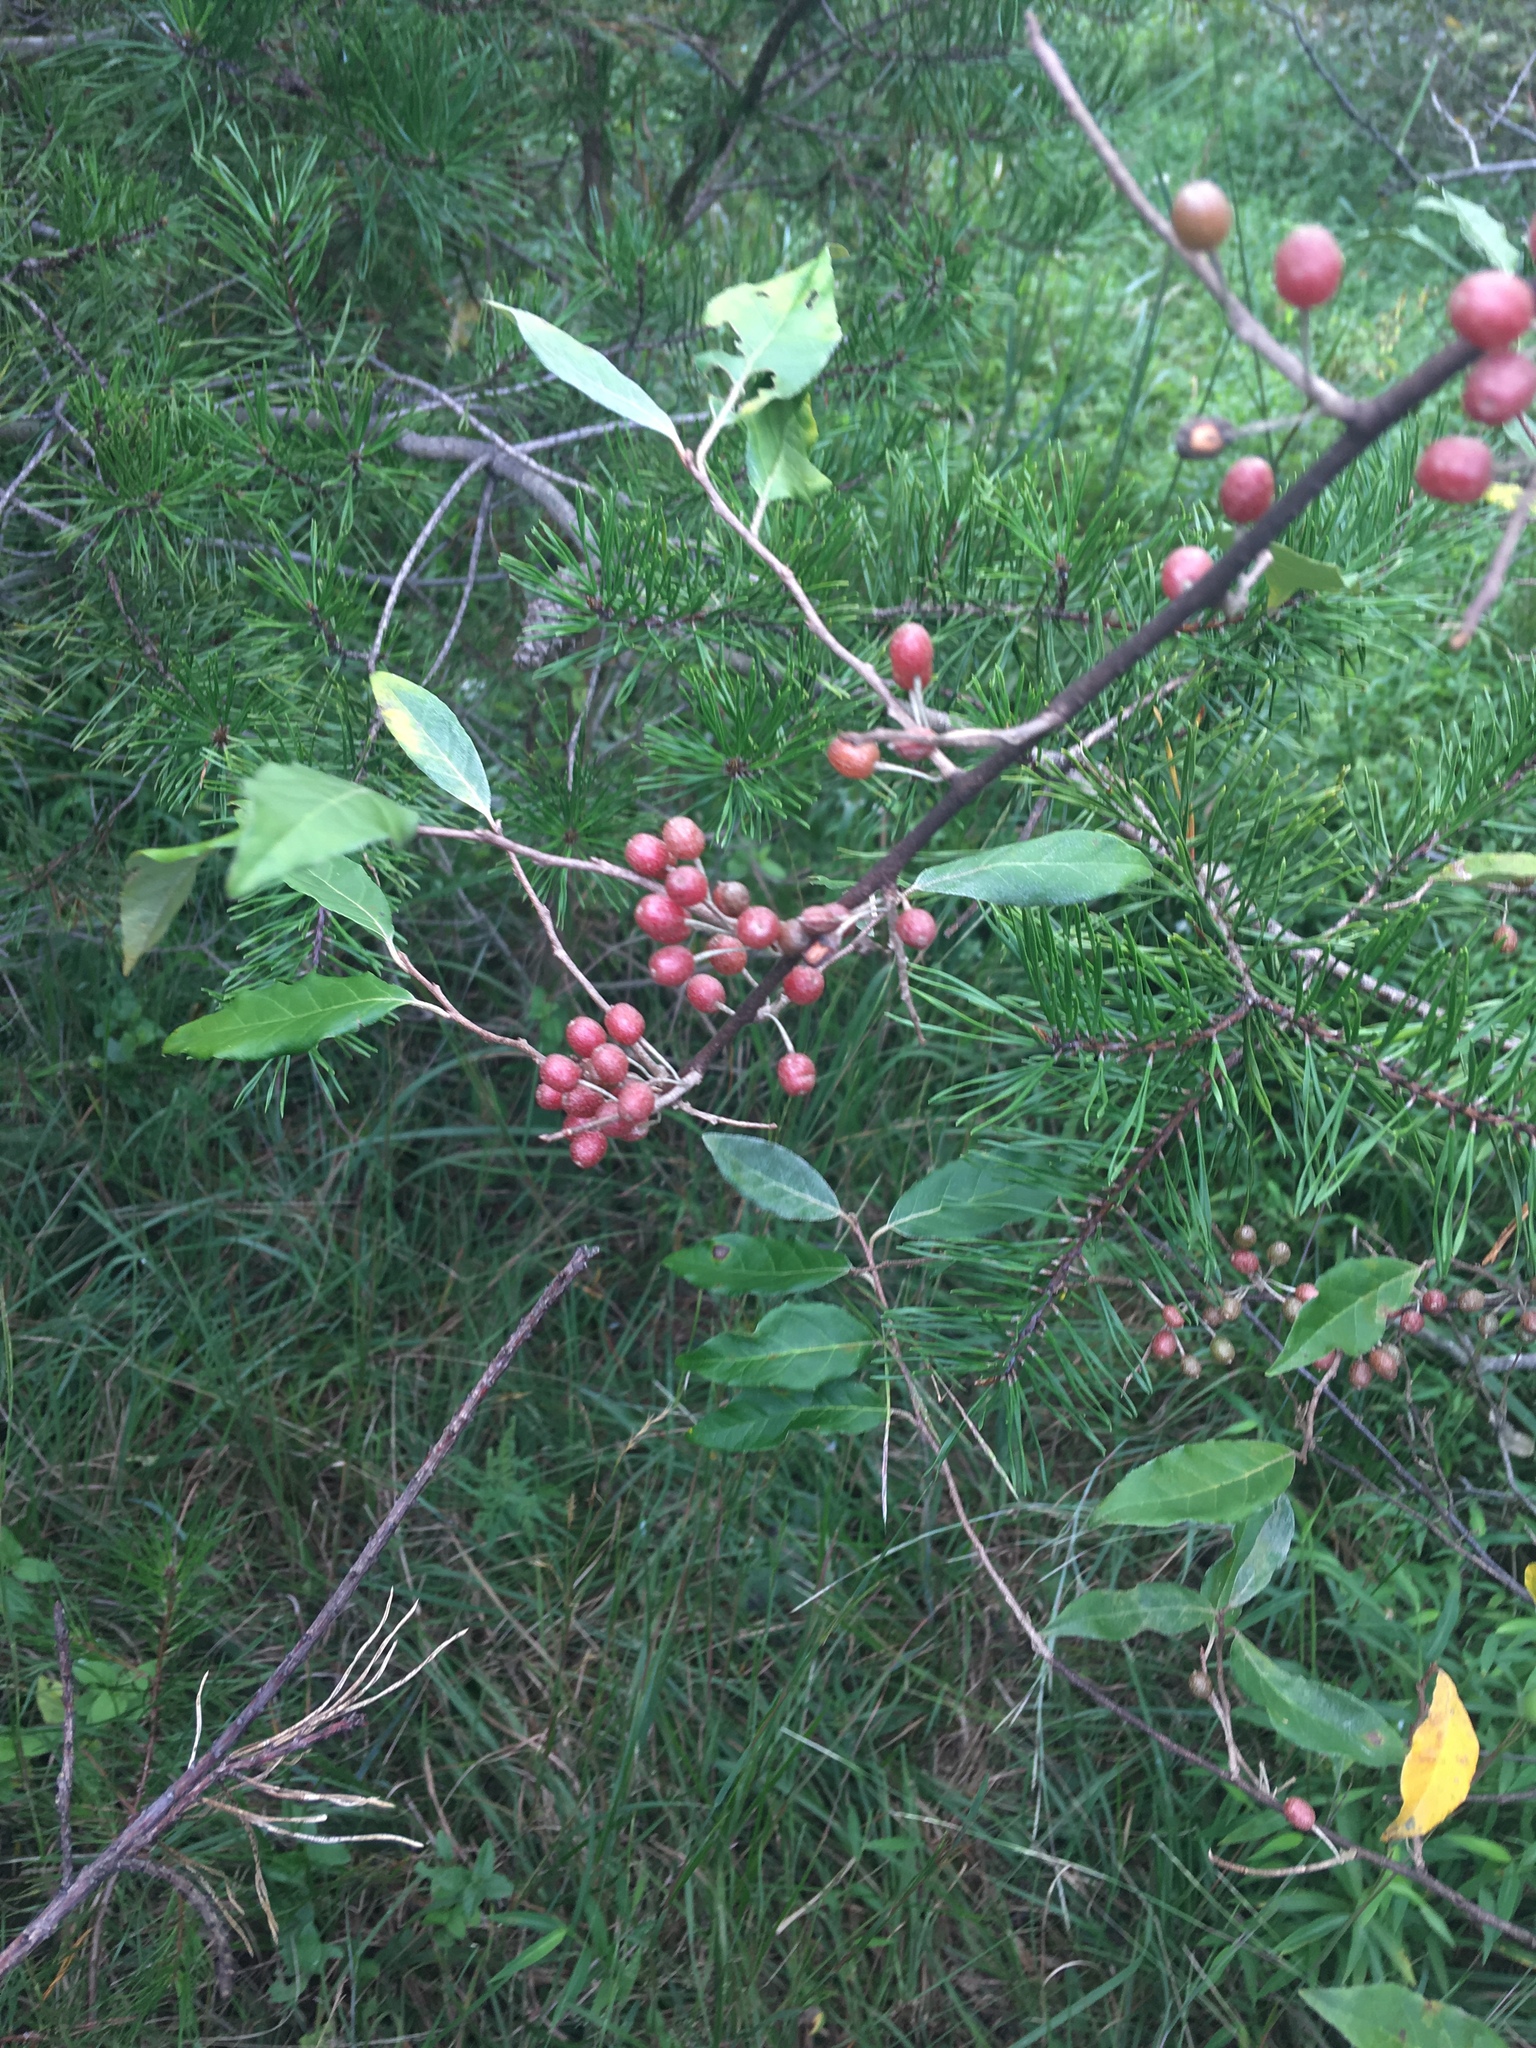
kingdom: Plantae
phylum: Tracheophyta
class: Magnoliopsida
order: Rosales
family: Elaeagnaceae
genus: Elaeagnus
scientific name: Elaeagnus umbellata
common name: Autumn olive
